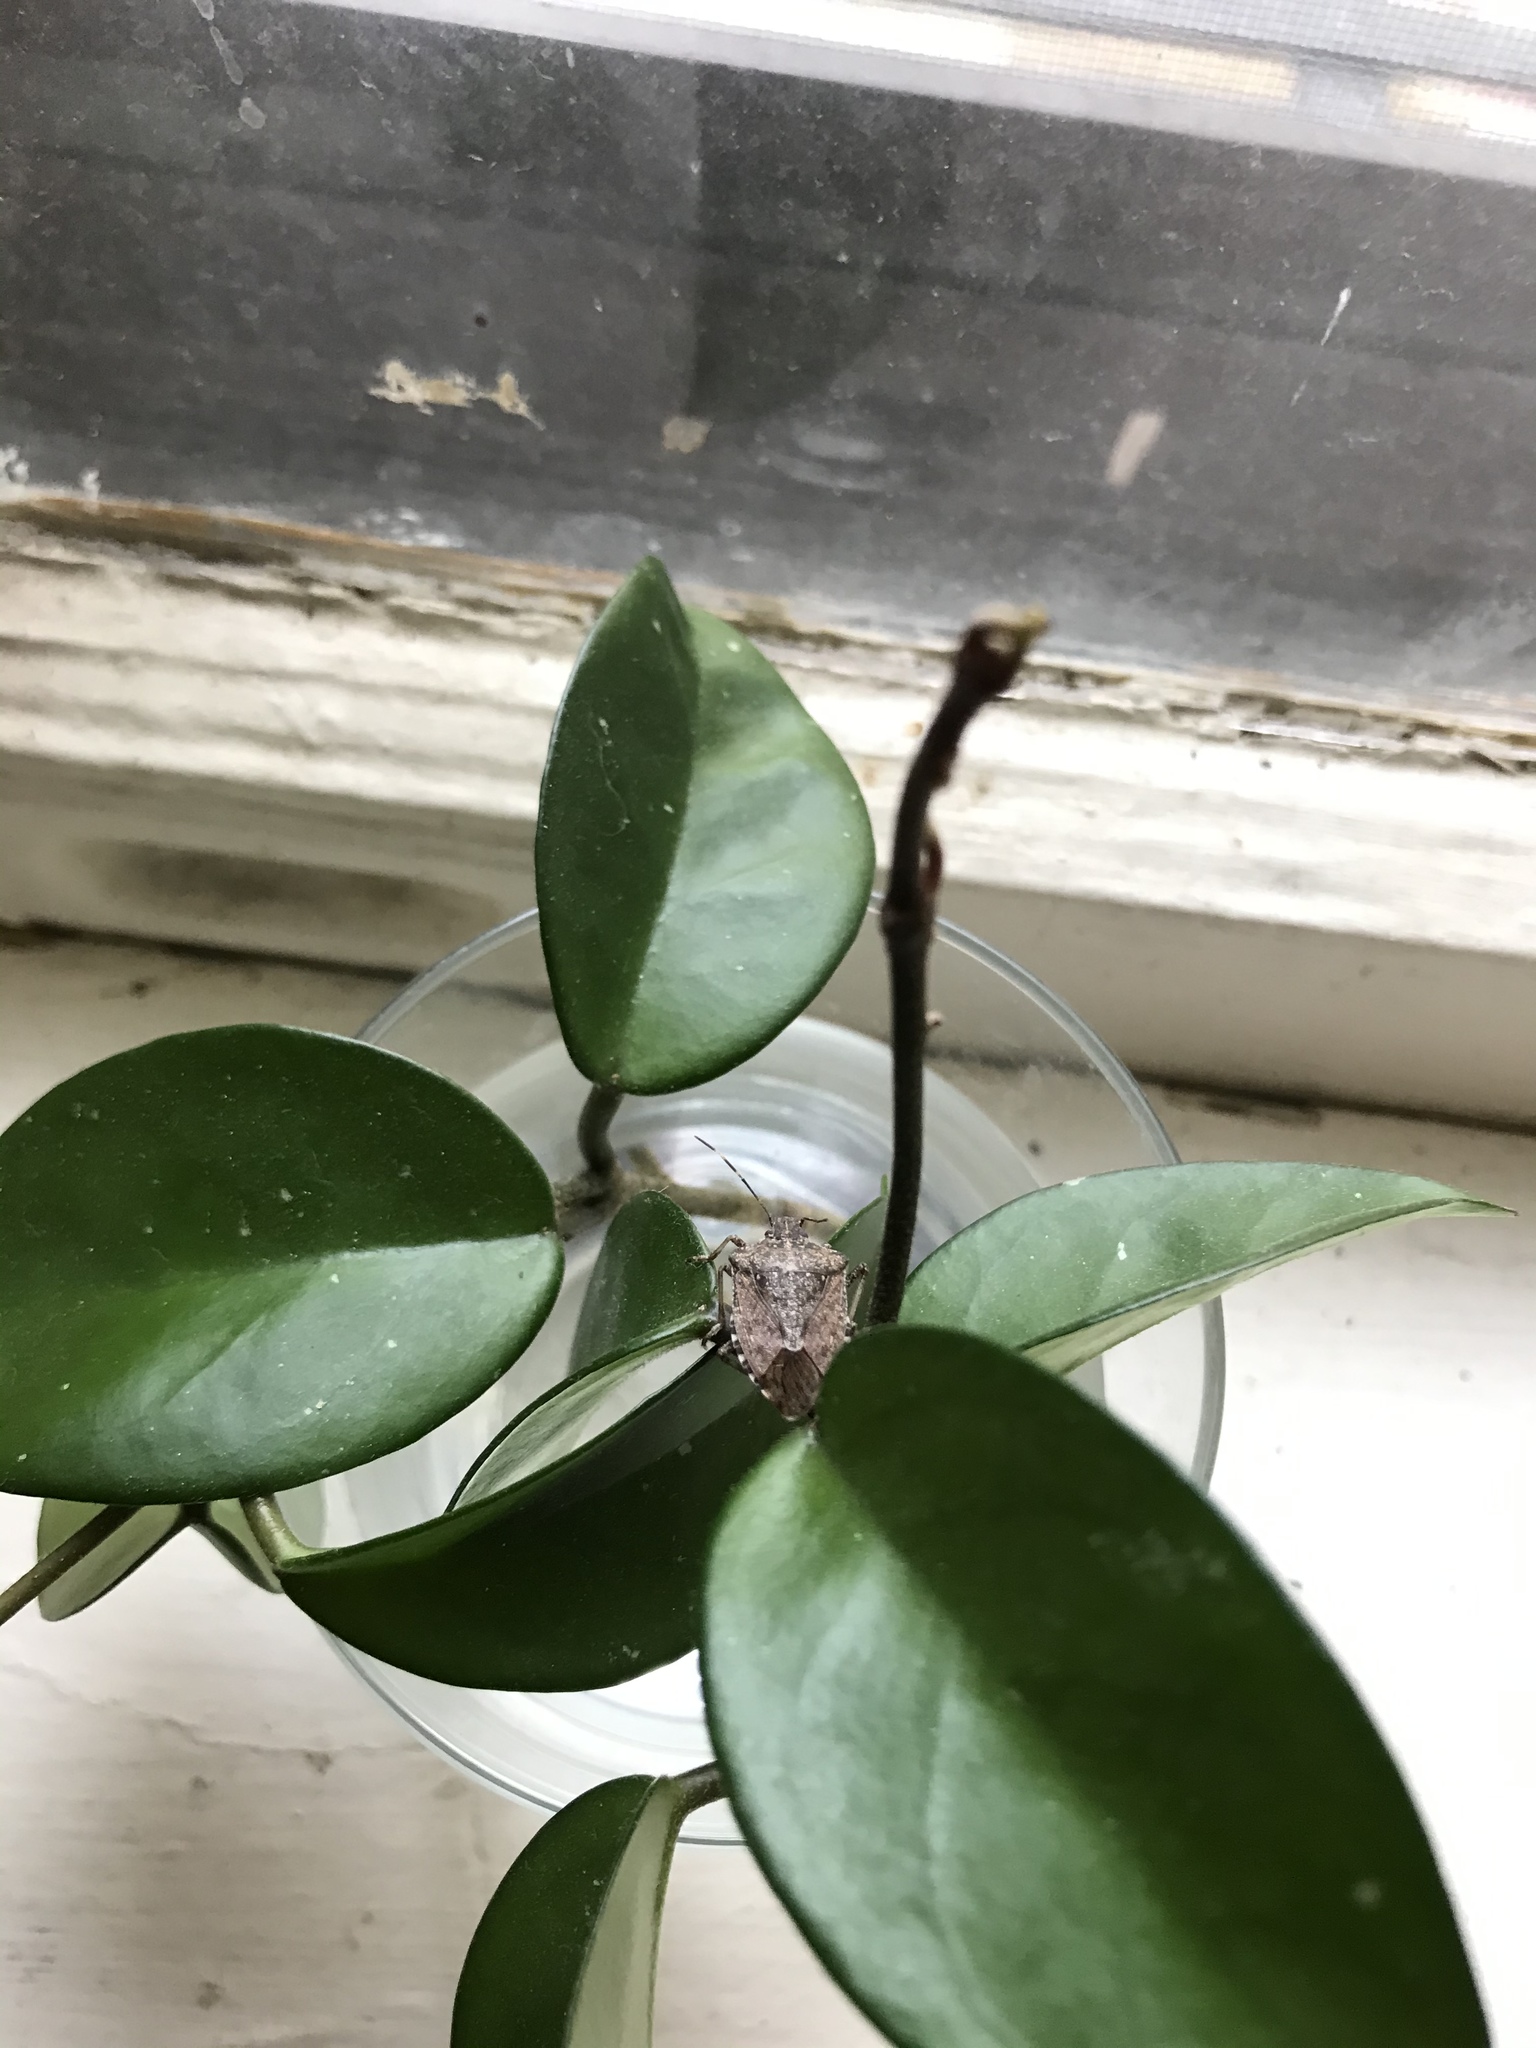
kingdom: Animalia
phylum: Arthropoda
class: Insecta
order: Hemiptera
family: Pentatomidae
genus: Halyomorpha
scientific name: Halyomorpha halys
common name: Brown marmorated stink bug
